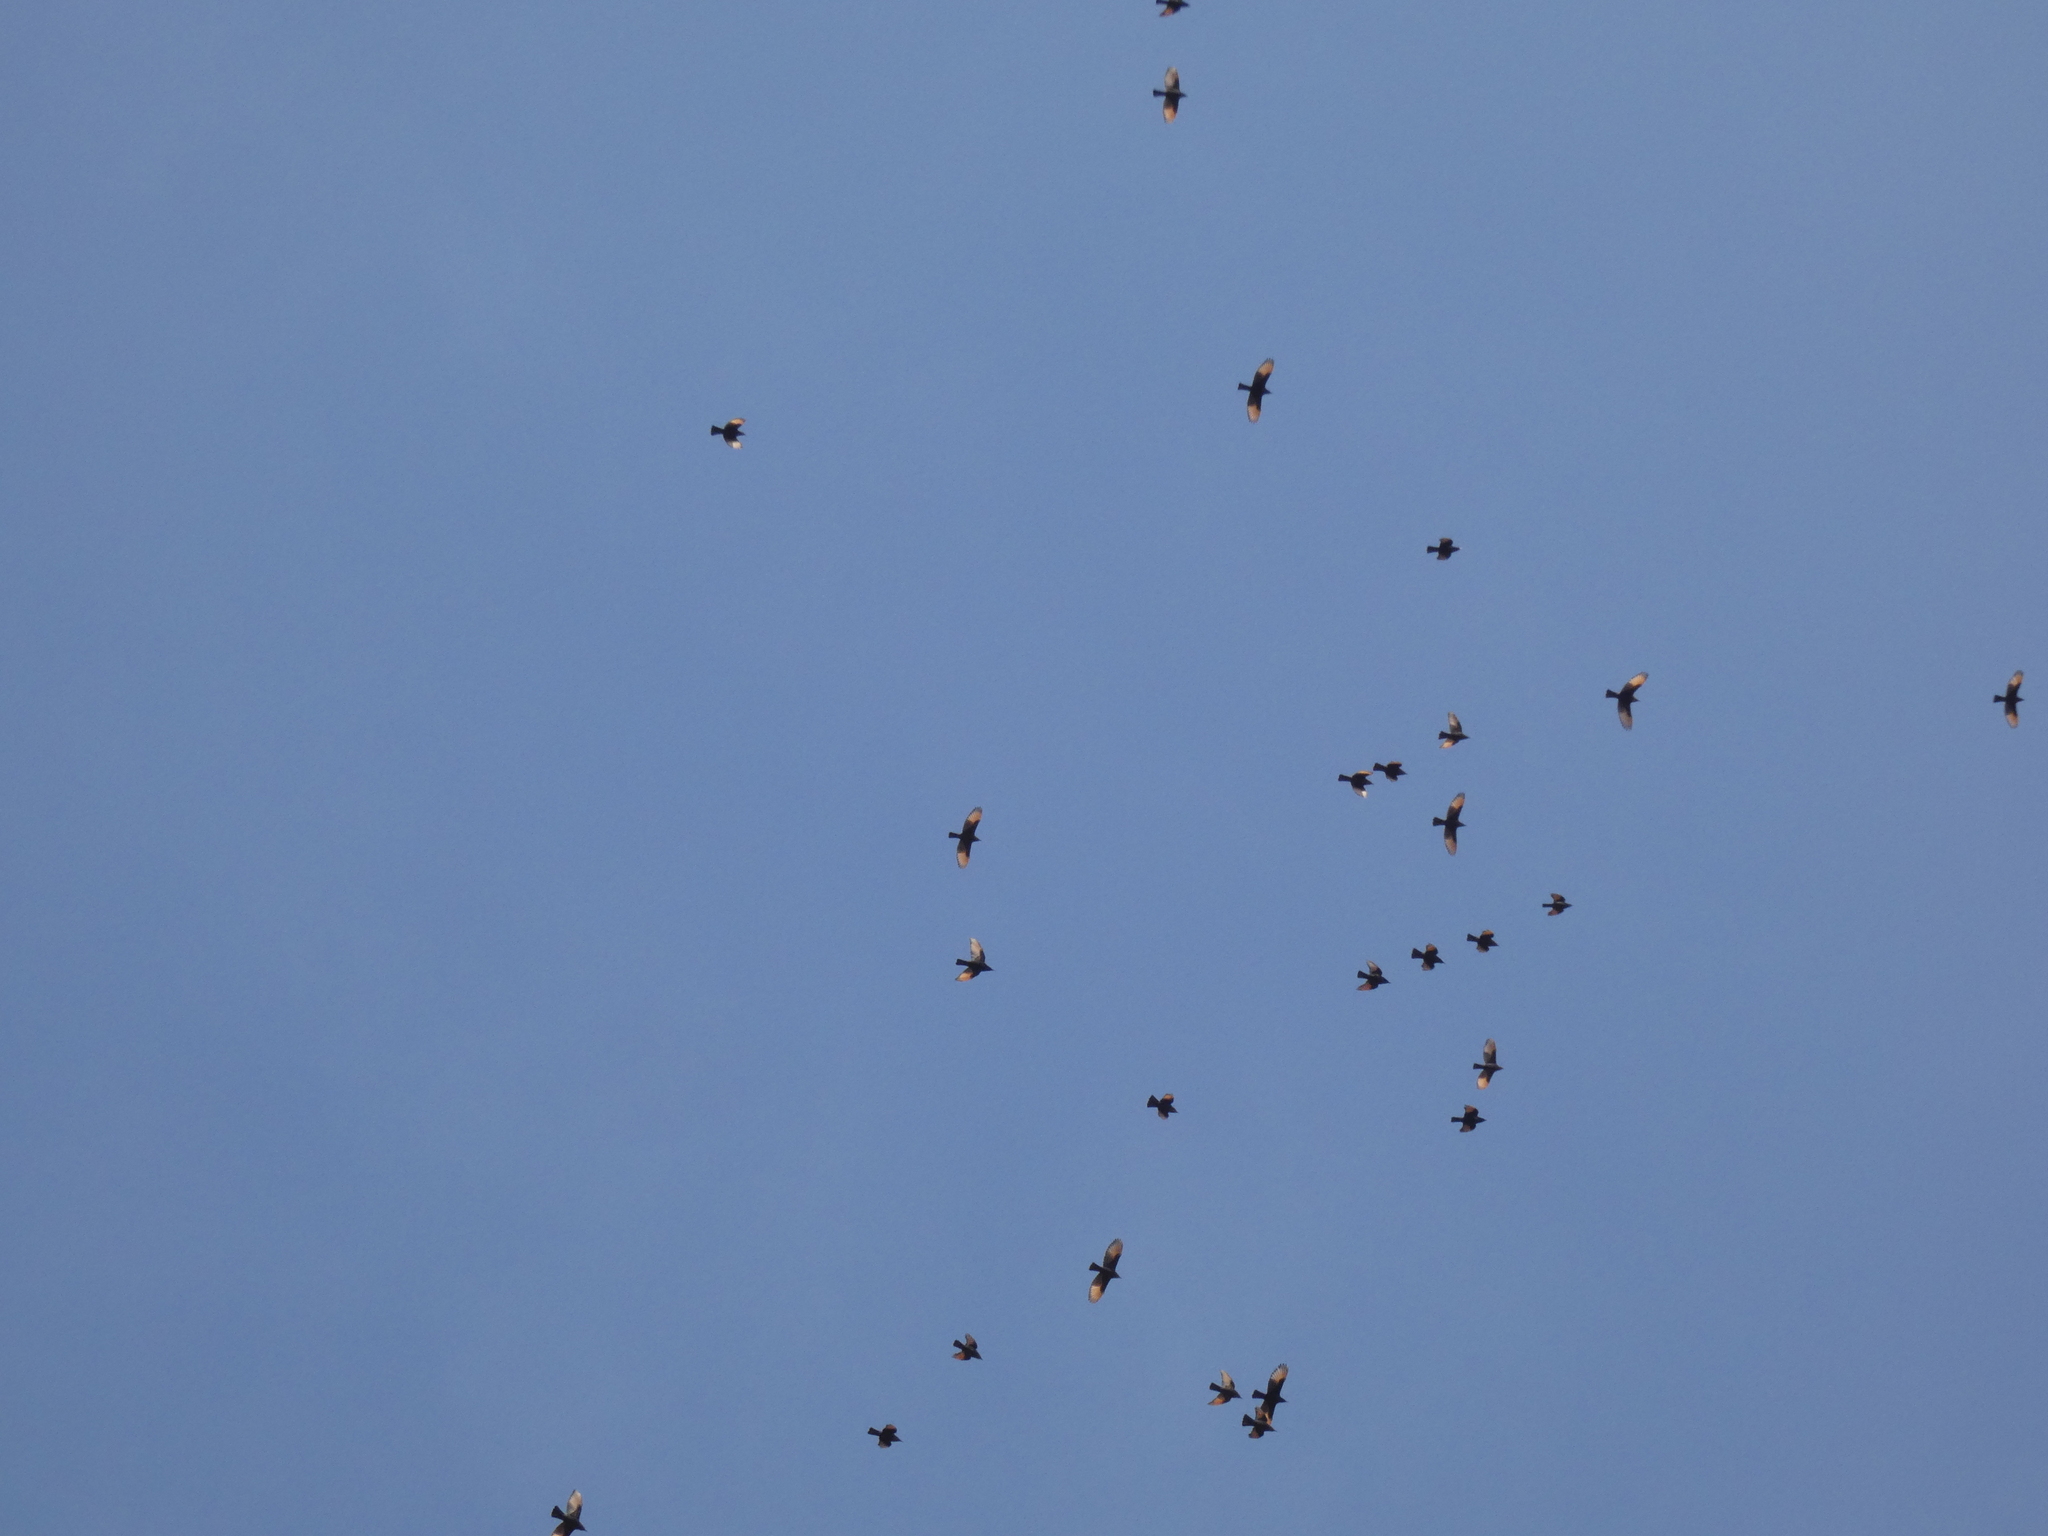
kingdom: Animalia
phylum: Chordata
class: Aves
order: Passeriformes
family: Sturnidae
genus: Onychognathus
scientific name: Onychognathus tristramii
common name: Tristram's starling
